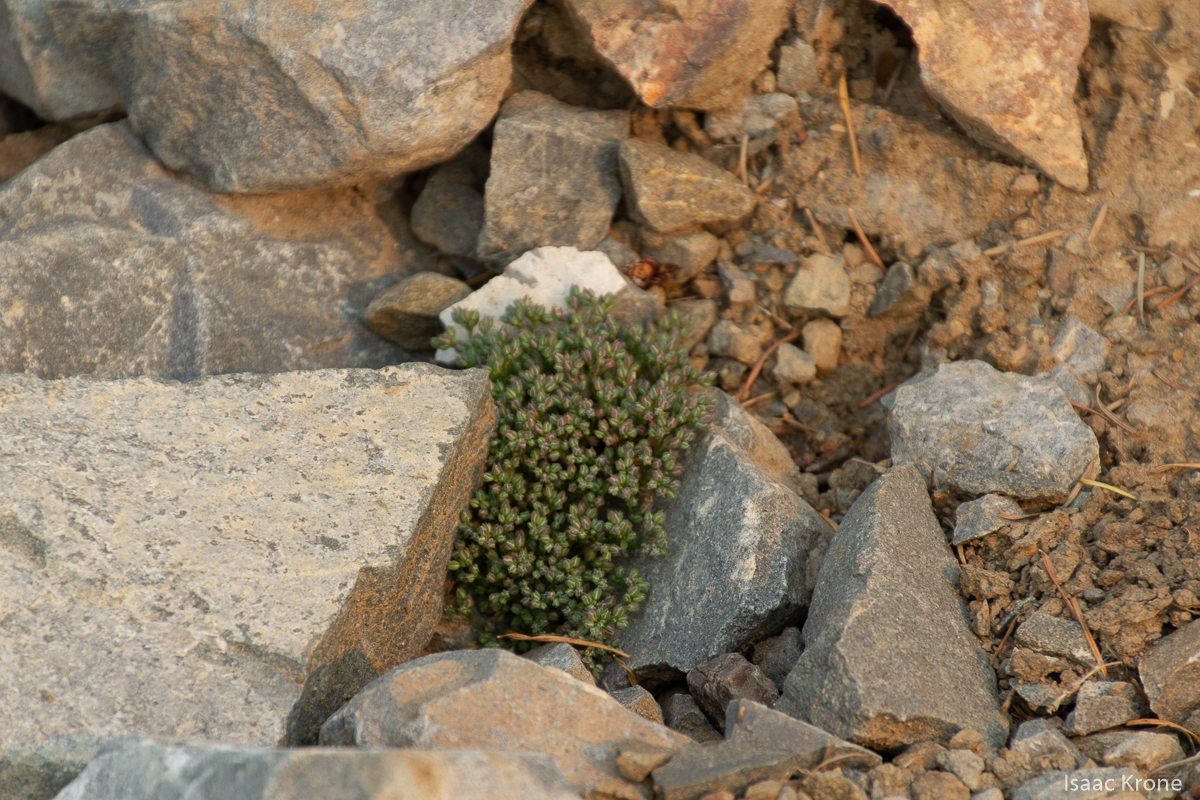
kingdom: Plantae
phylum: Tracheophyta
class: Magnoliopsida
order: Caryophyllales
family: Caryophyllaceae
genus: Polycarpon
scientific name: Polycarpon tetraphyllum
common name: Four-leaved all-seed
